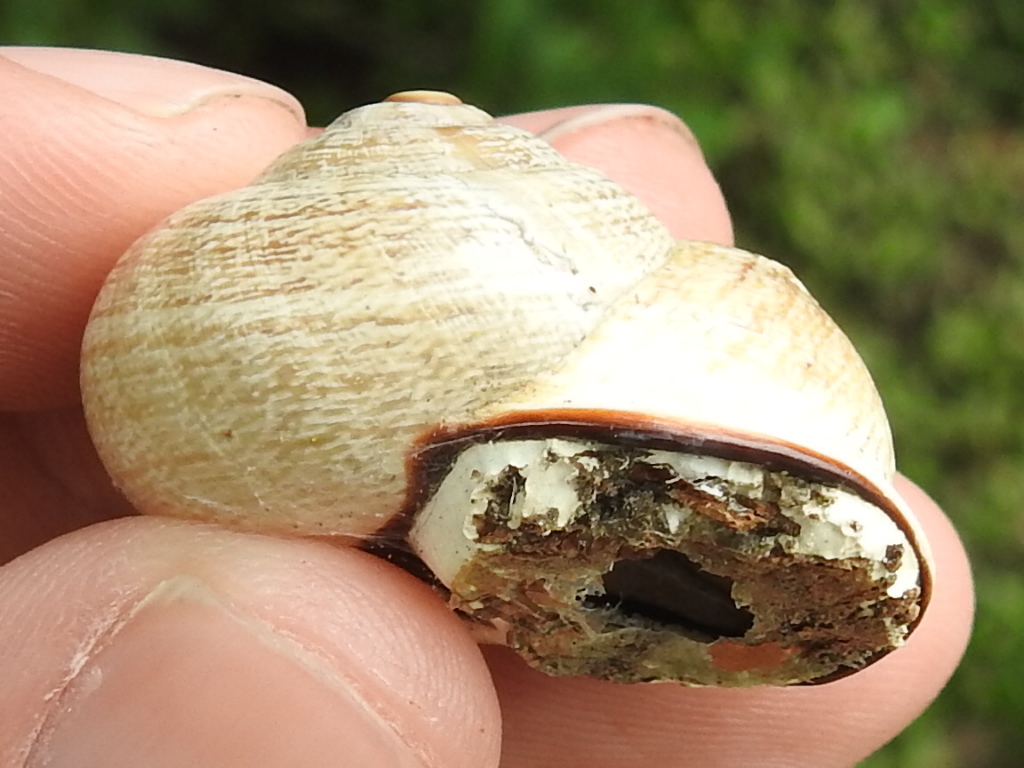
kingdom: Animalia
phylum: Mollusca
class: Gastropoda
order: Stylommatophora
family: Helicidae
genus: Otala
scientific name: Otala lactea
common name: Milk snail
